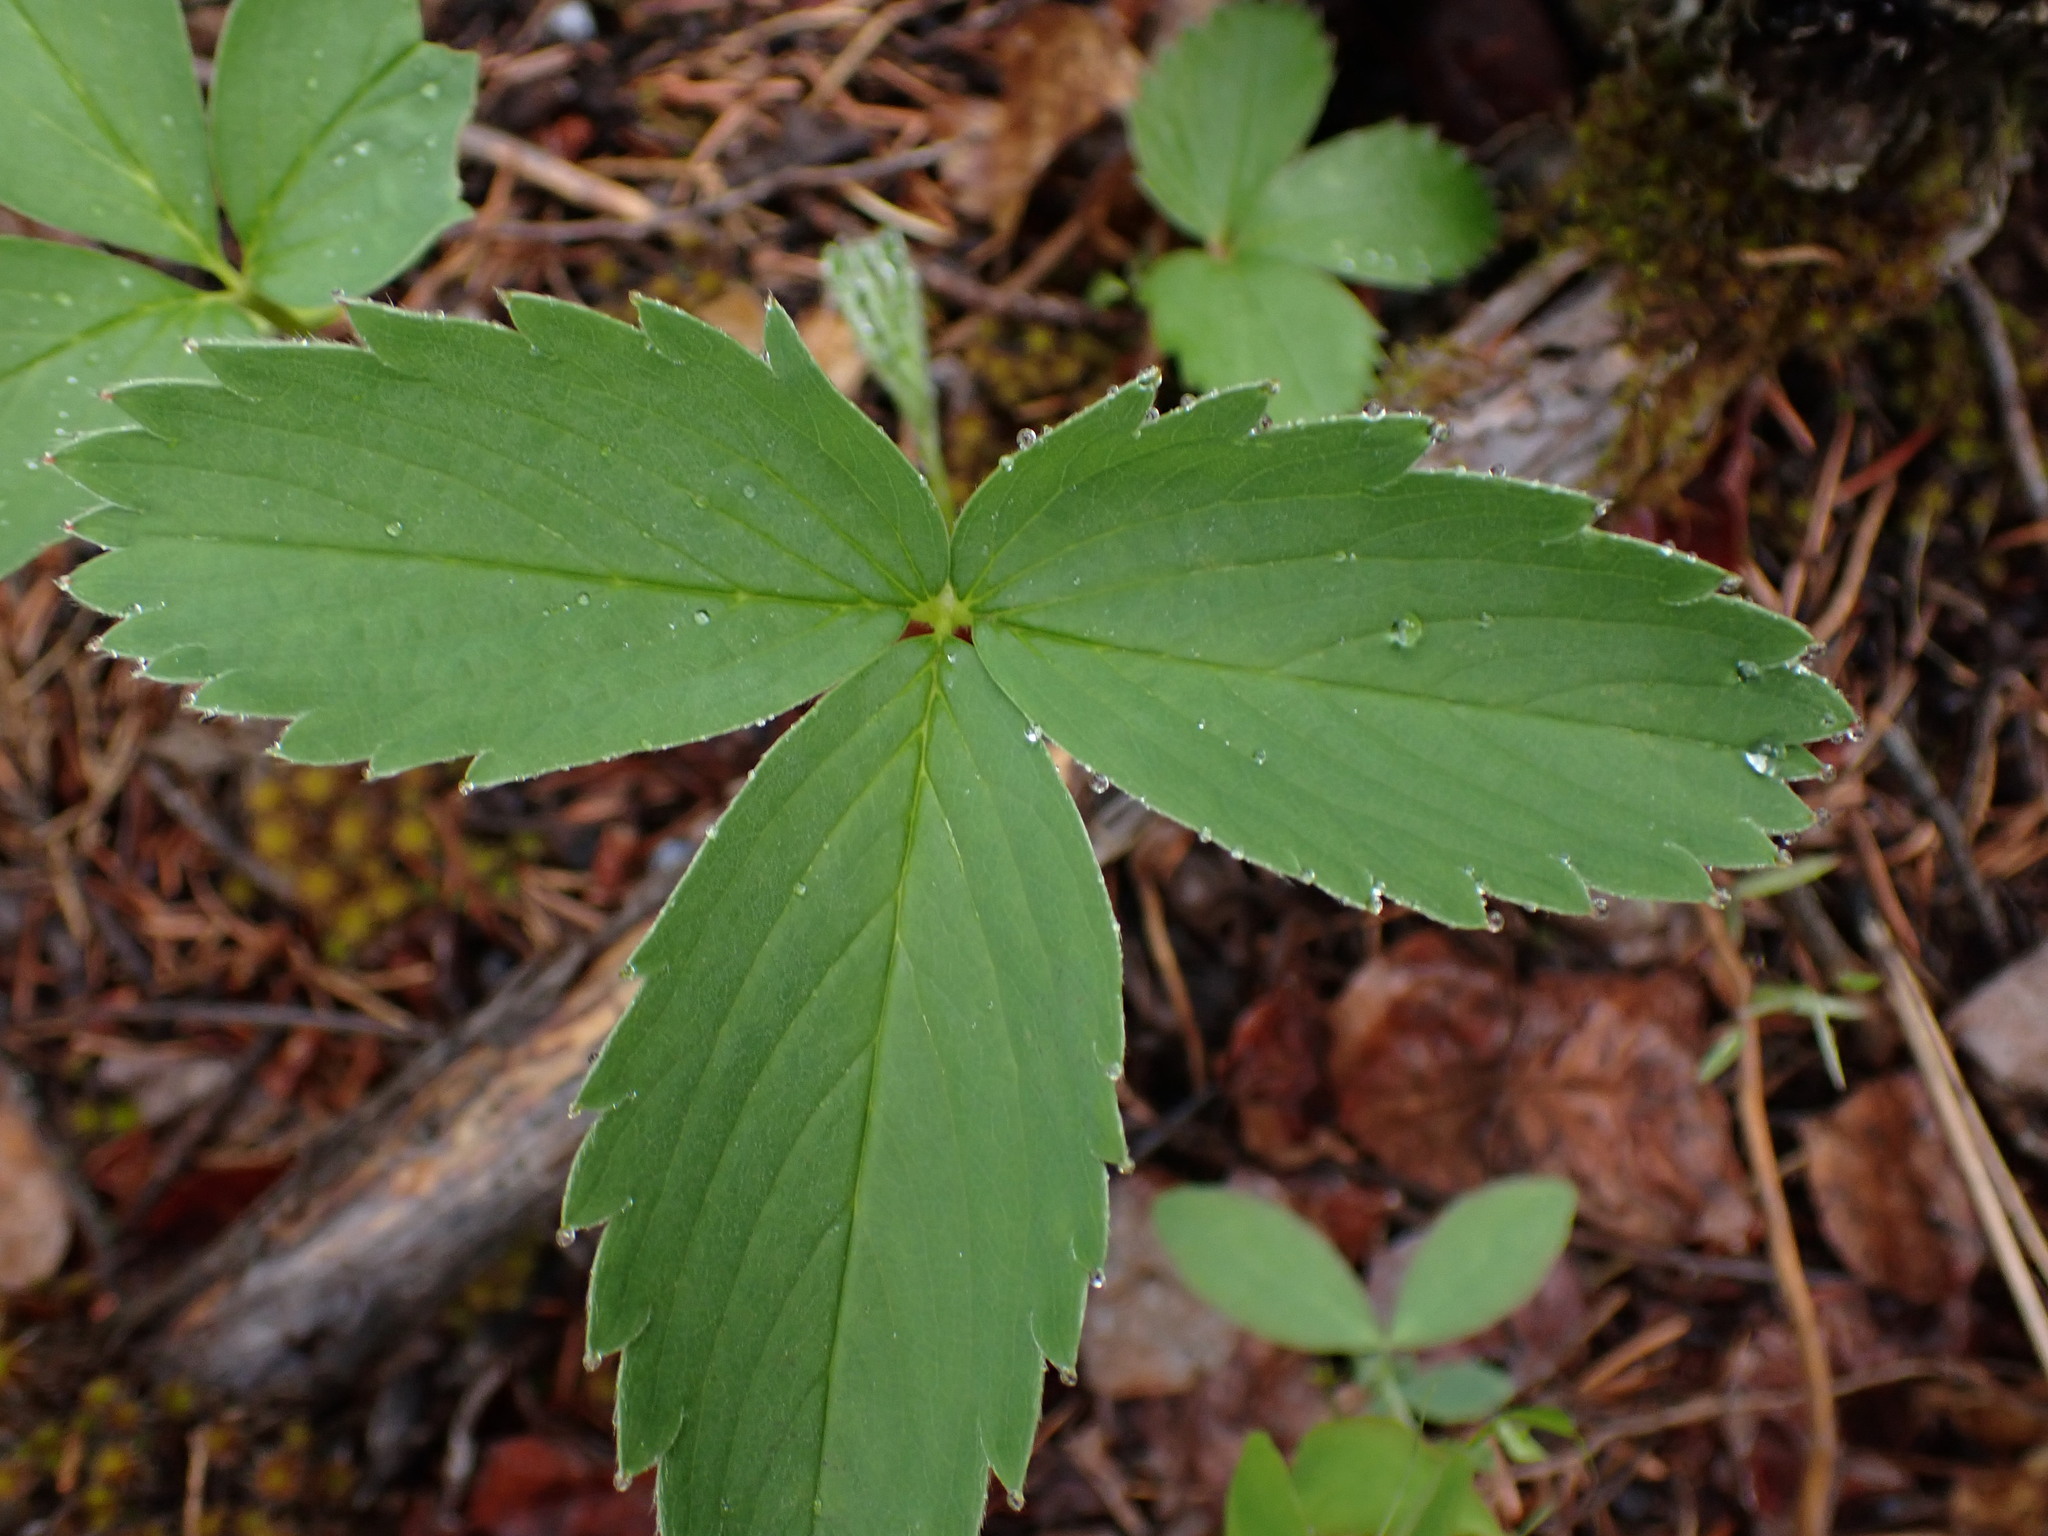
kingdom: Plantae
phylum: Tracheophyta
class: Magnoliopsida
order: Rosales
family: Rosaceae
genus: Fragaria
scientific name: Fragaria virginiana
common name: Thickleaved wild strawberry
